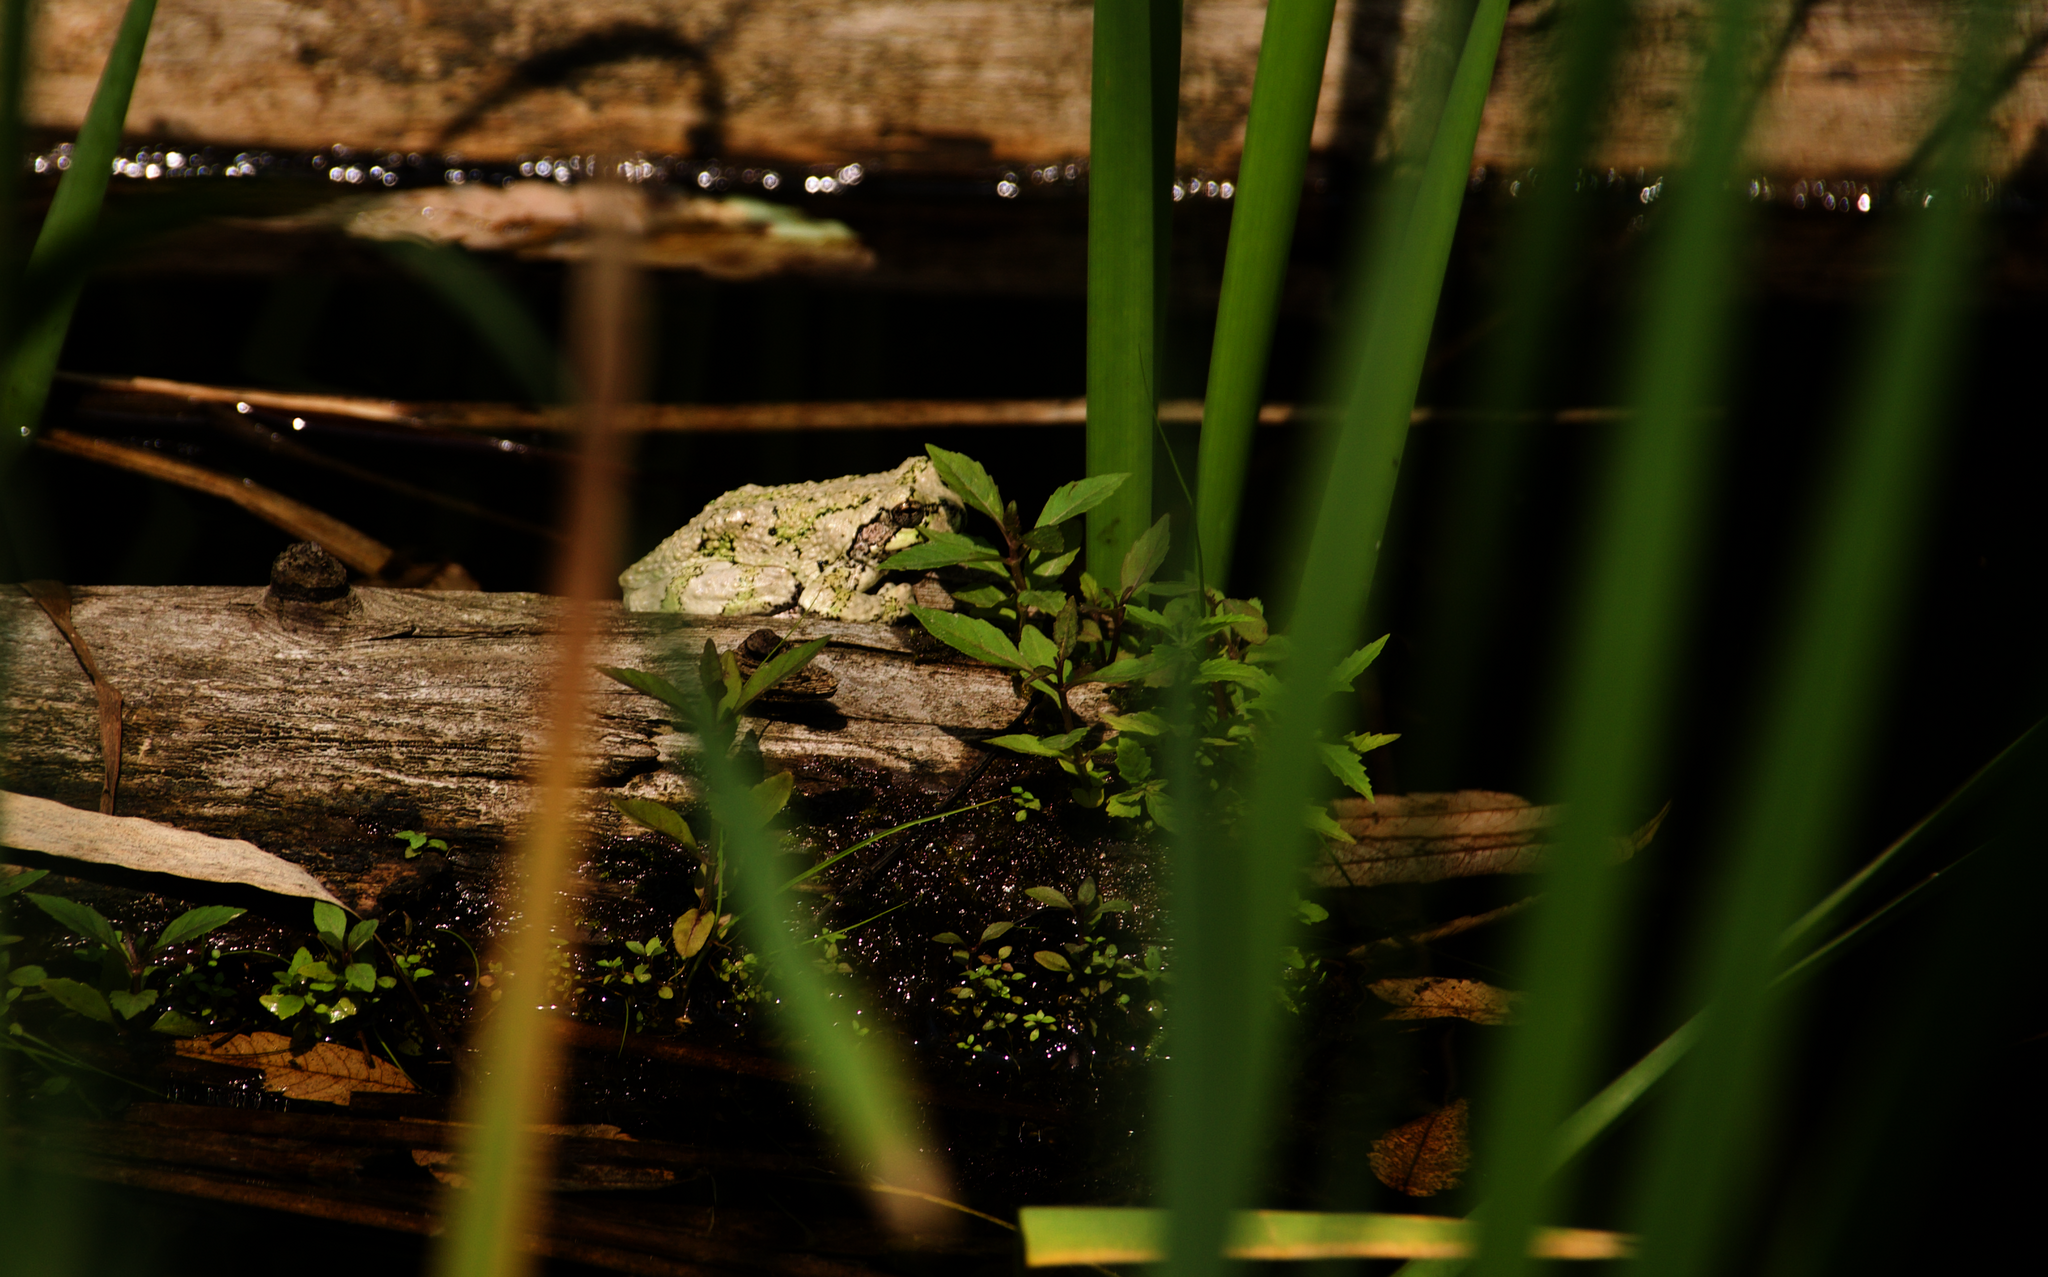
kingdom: Animalia
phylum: Chordata
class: Amphibia
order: Anura
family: Hylidae
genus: Dryophytes
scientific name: Dryophytes versicolor
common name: Gray treefrog
